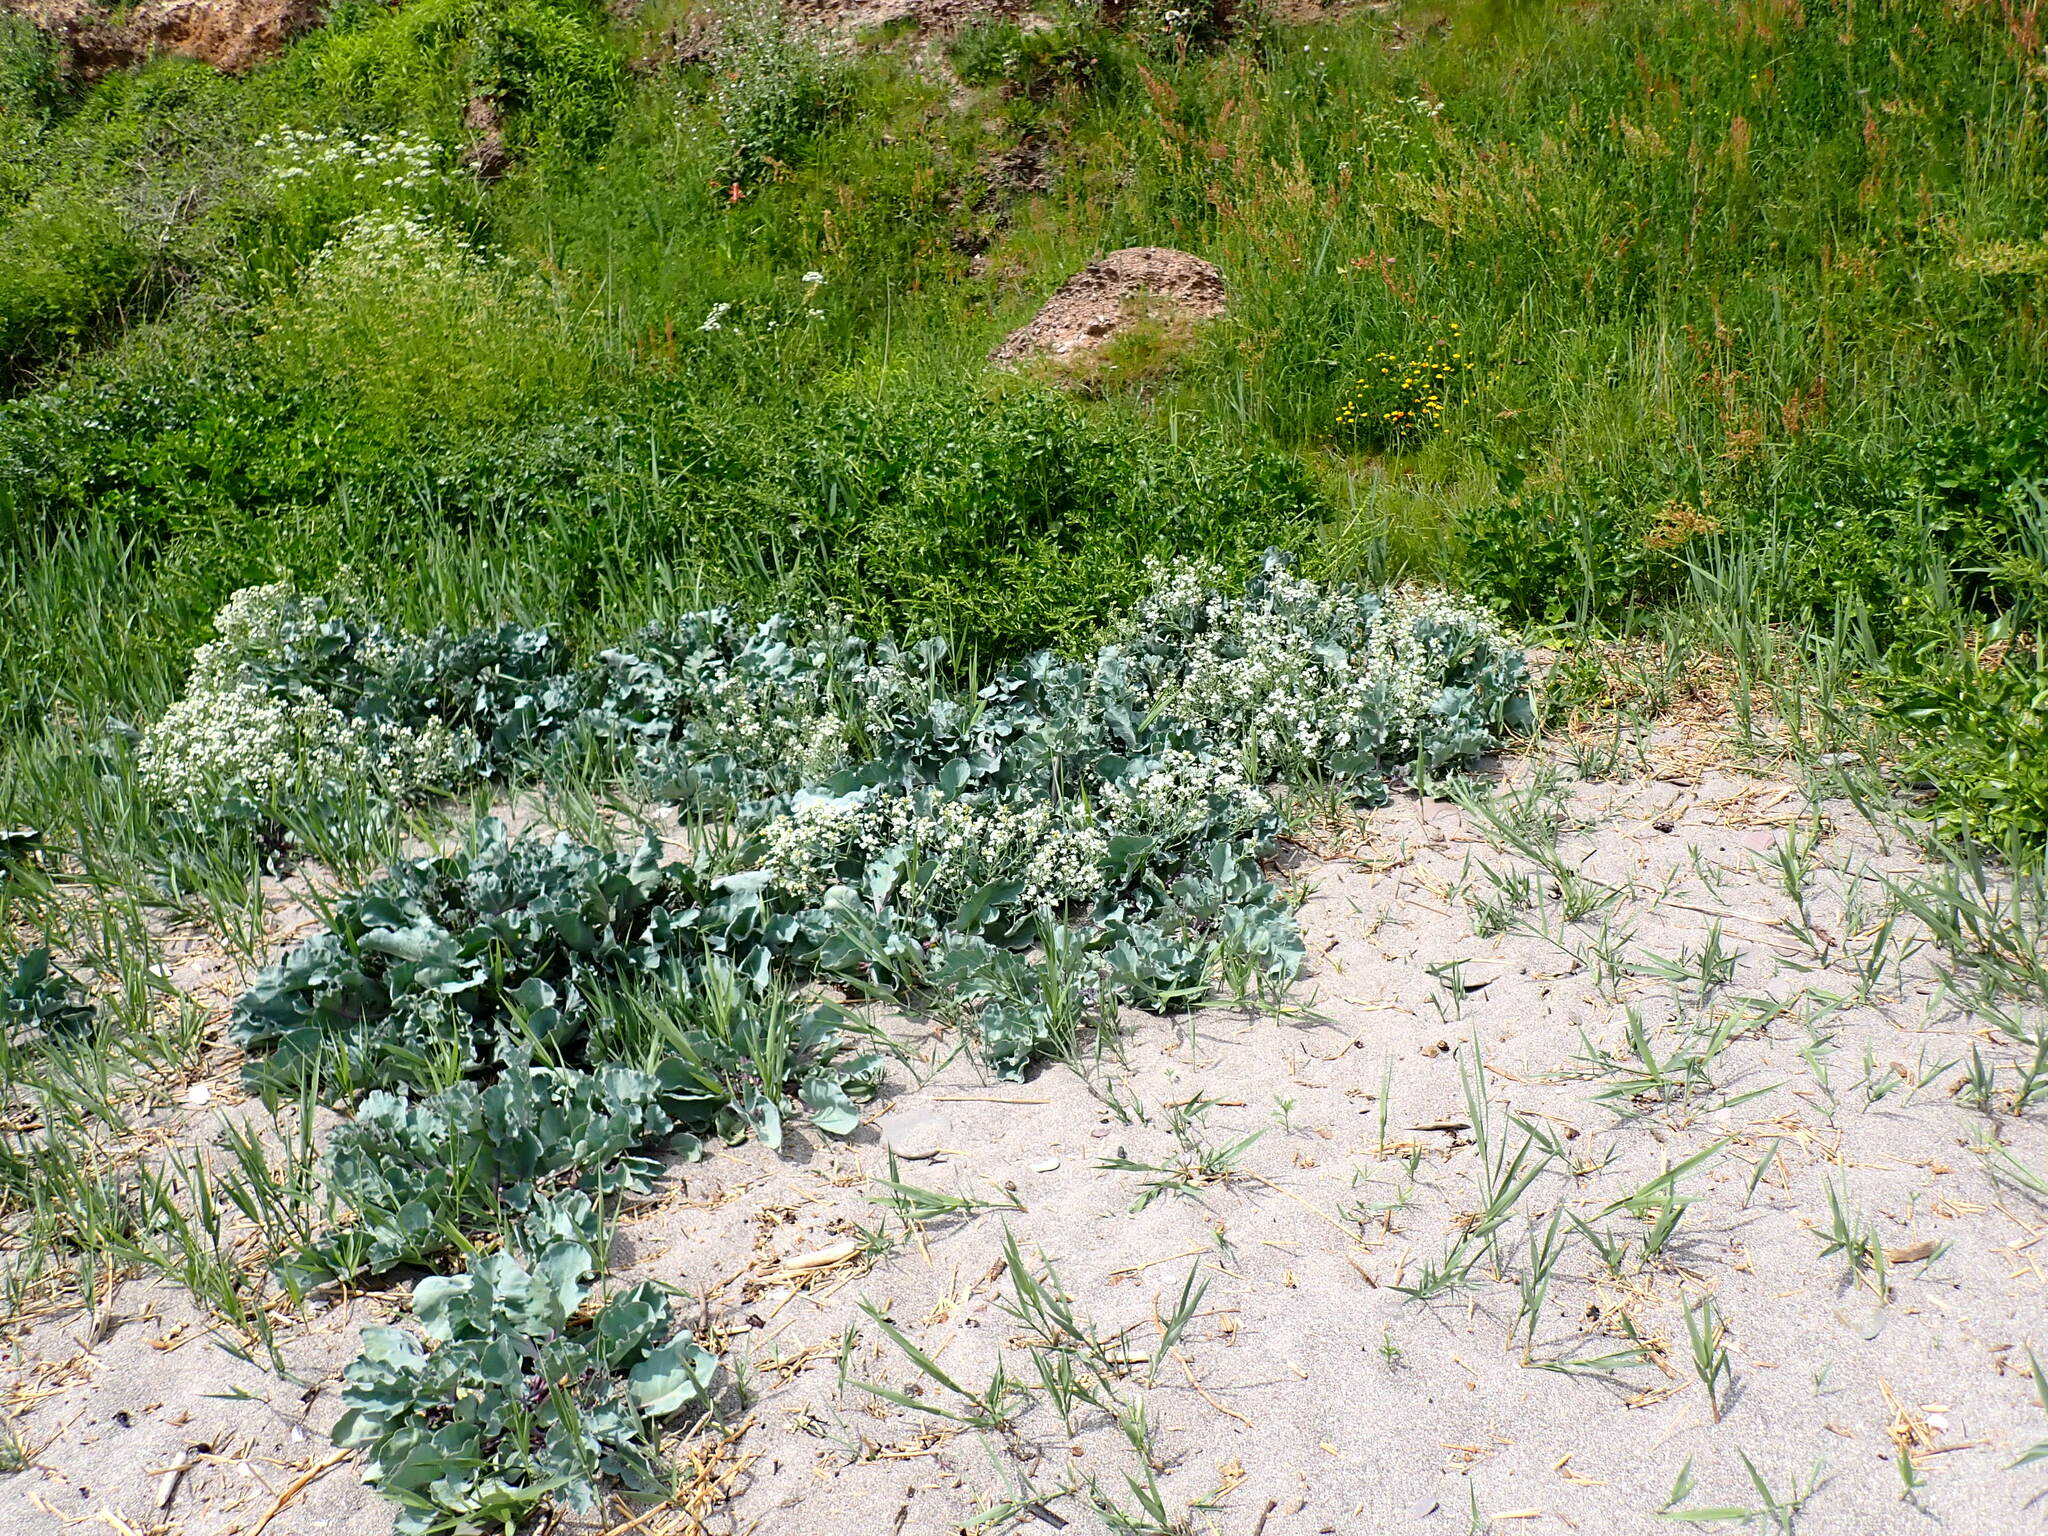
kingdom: Plantae
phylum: Tracheophyta
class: Magnoliopsida
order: Brassicales
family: Brassicaceae
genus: Crambe
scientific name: Crambe maritima
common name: Sea-kale
